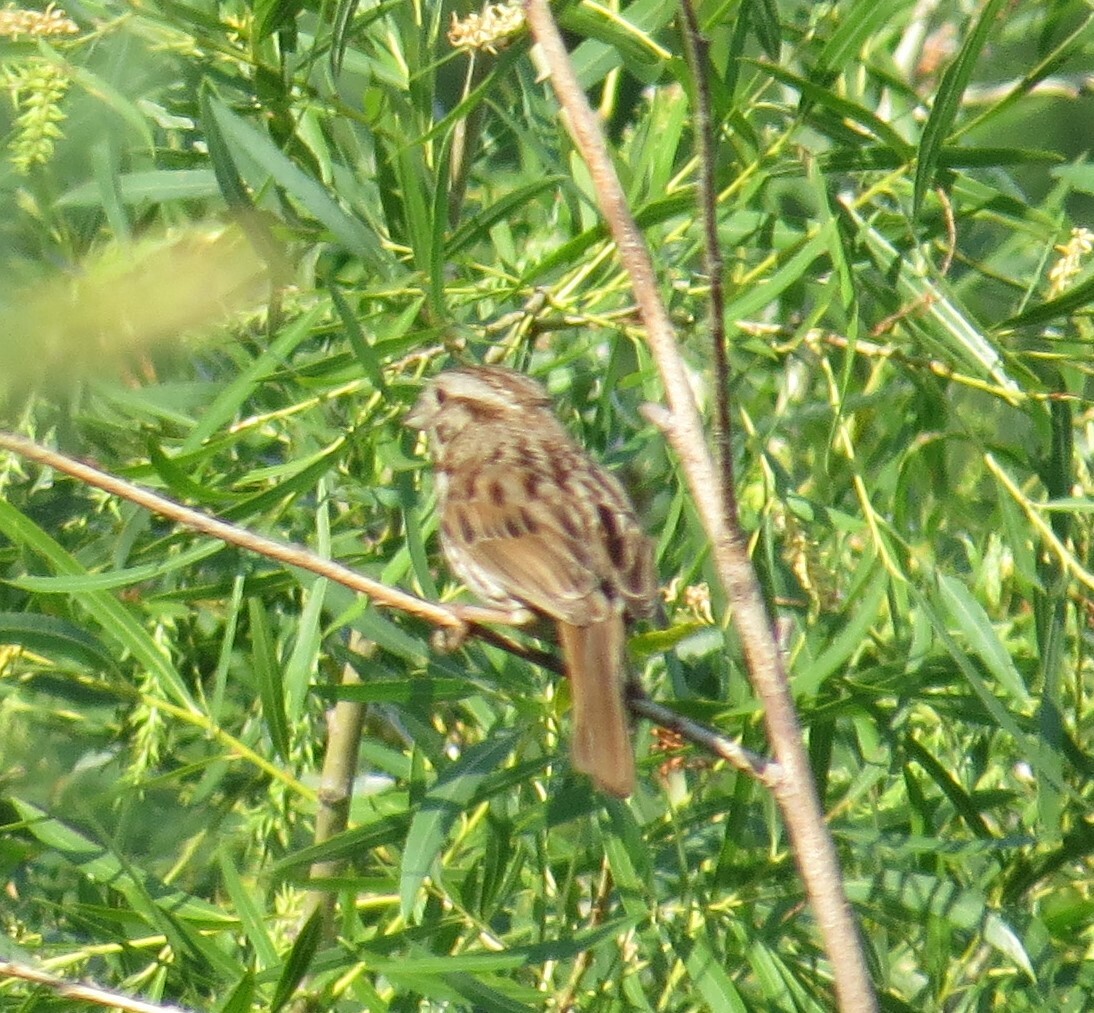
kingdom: Animalia
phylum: Chordata
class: Aves
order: Passeriformes
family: Passerellidae
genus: Melospiza
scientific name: Melospiza melodia
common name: Song sparrow
